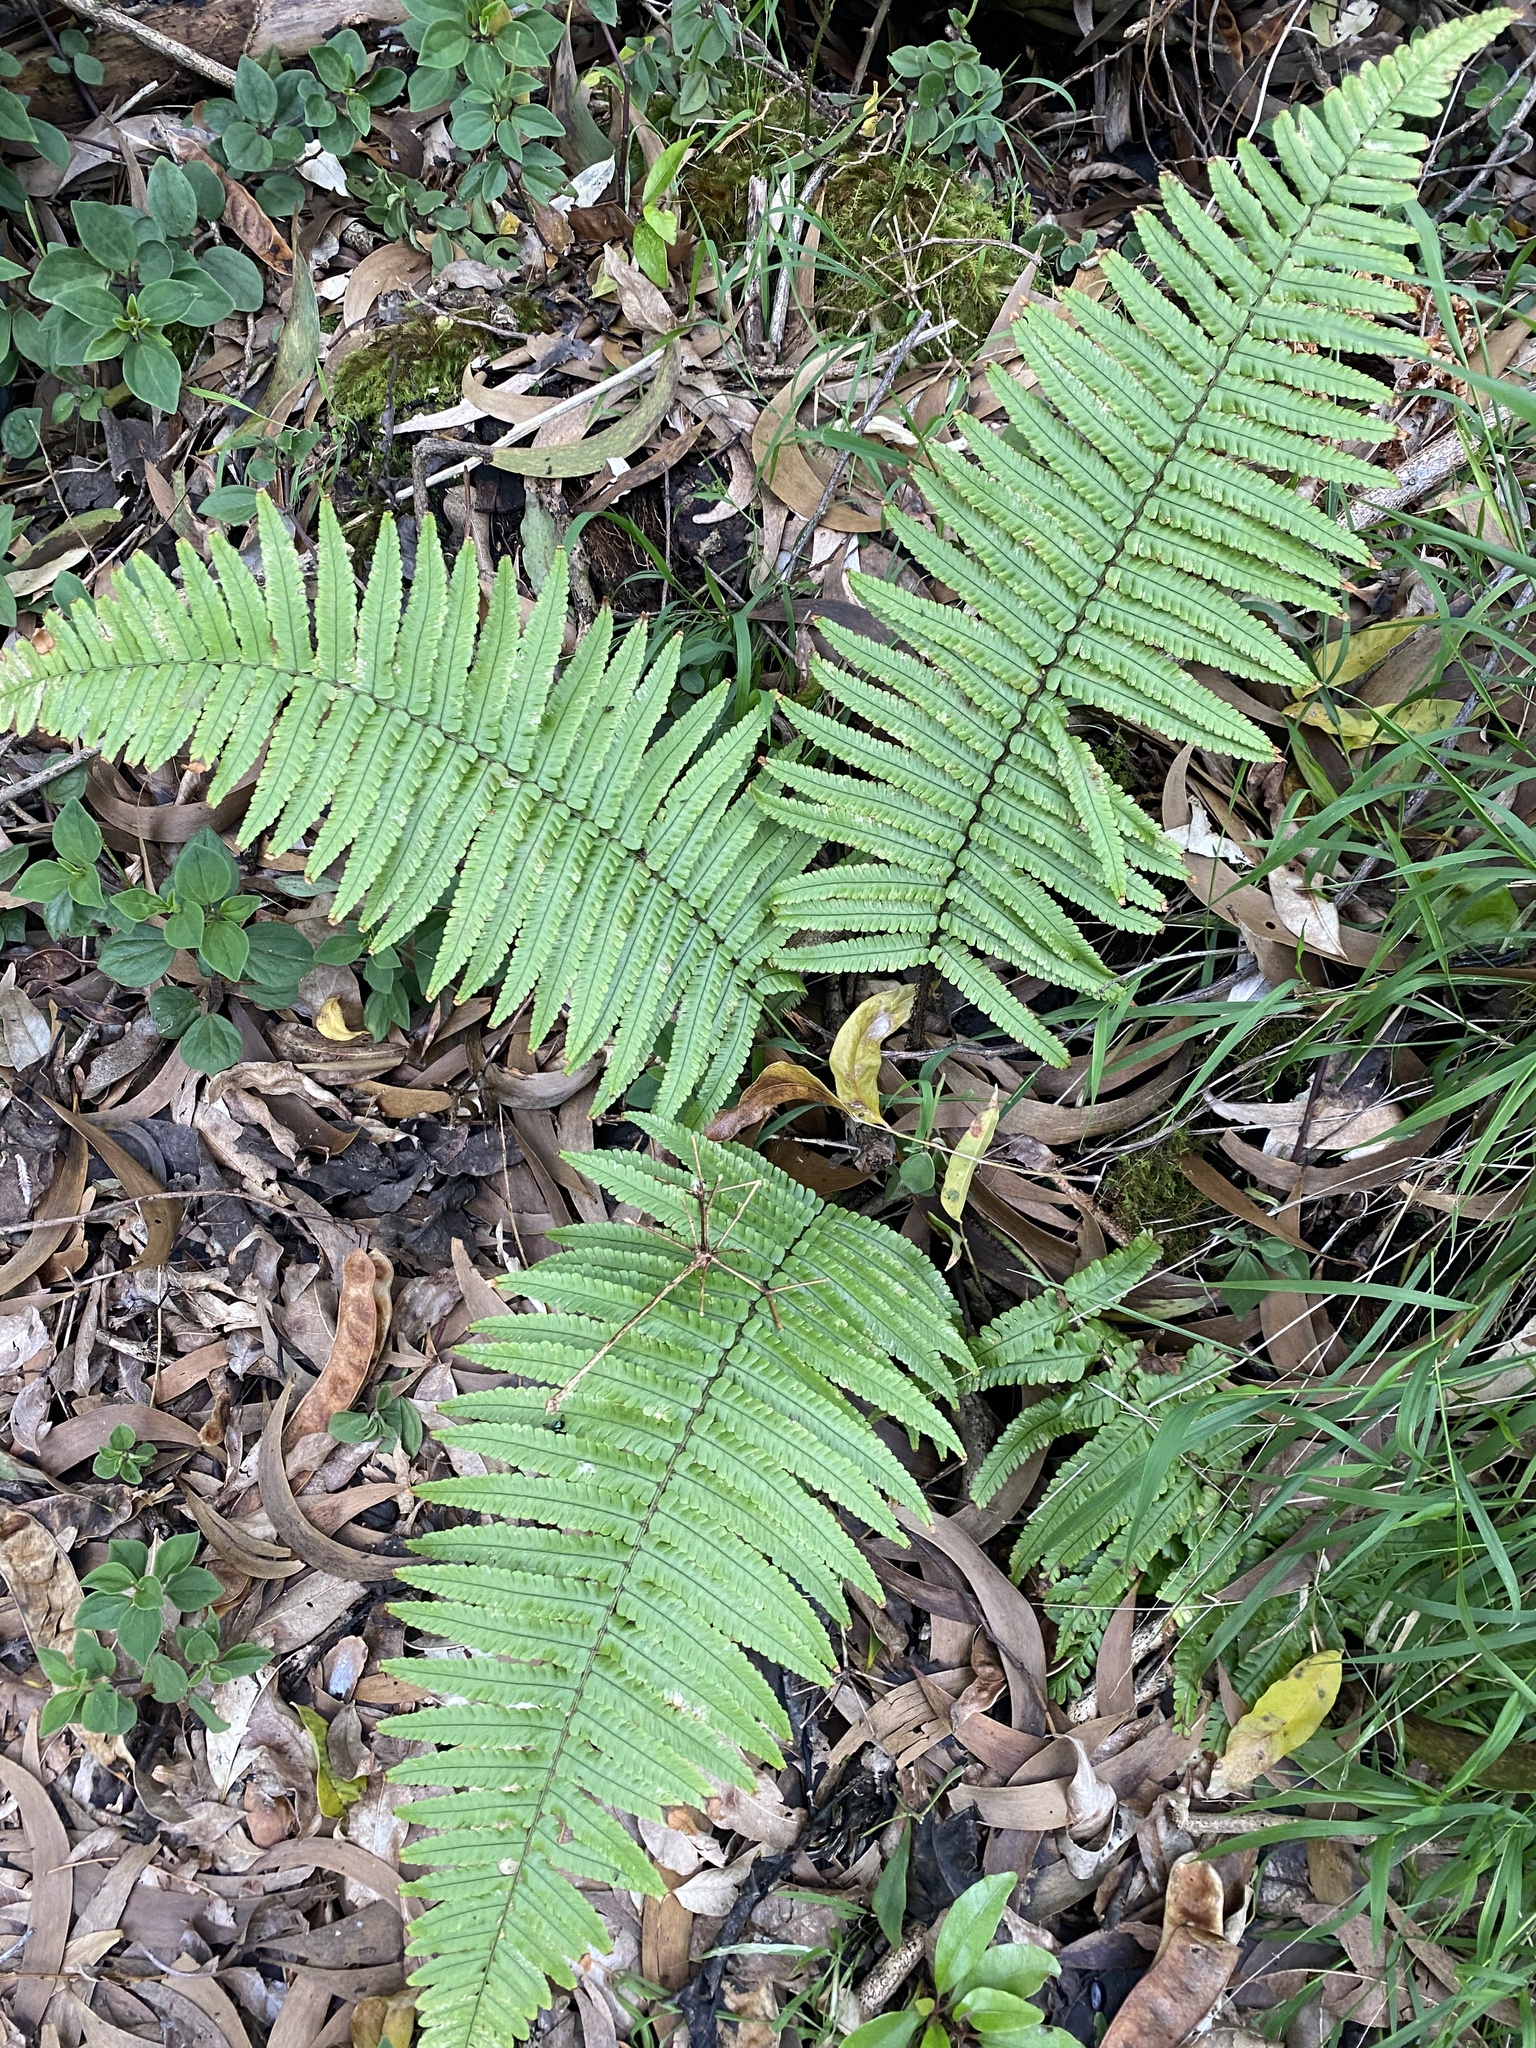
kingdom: Plantae
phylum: Tracheophyta
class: Polypodiopsida
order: Polypodiales
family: Dryopteridaceae
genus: Dryopteris
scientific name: Dryopteris fuscoatra
